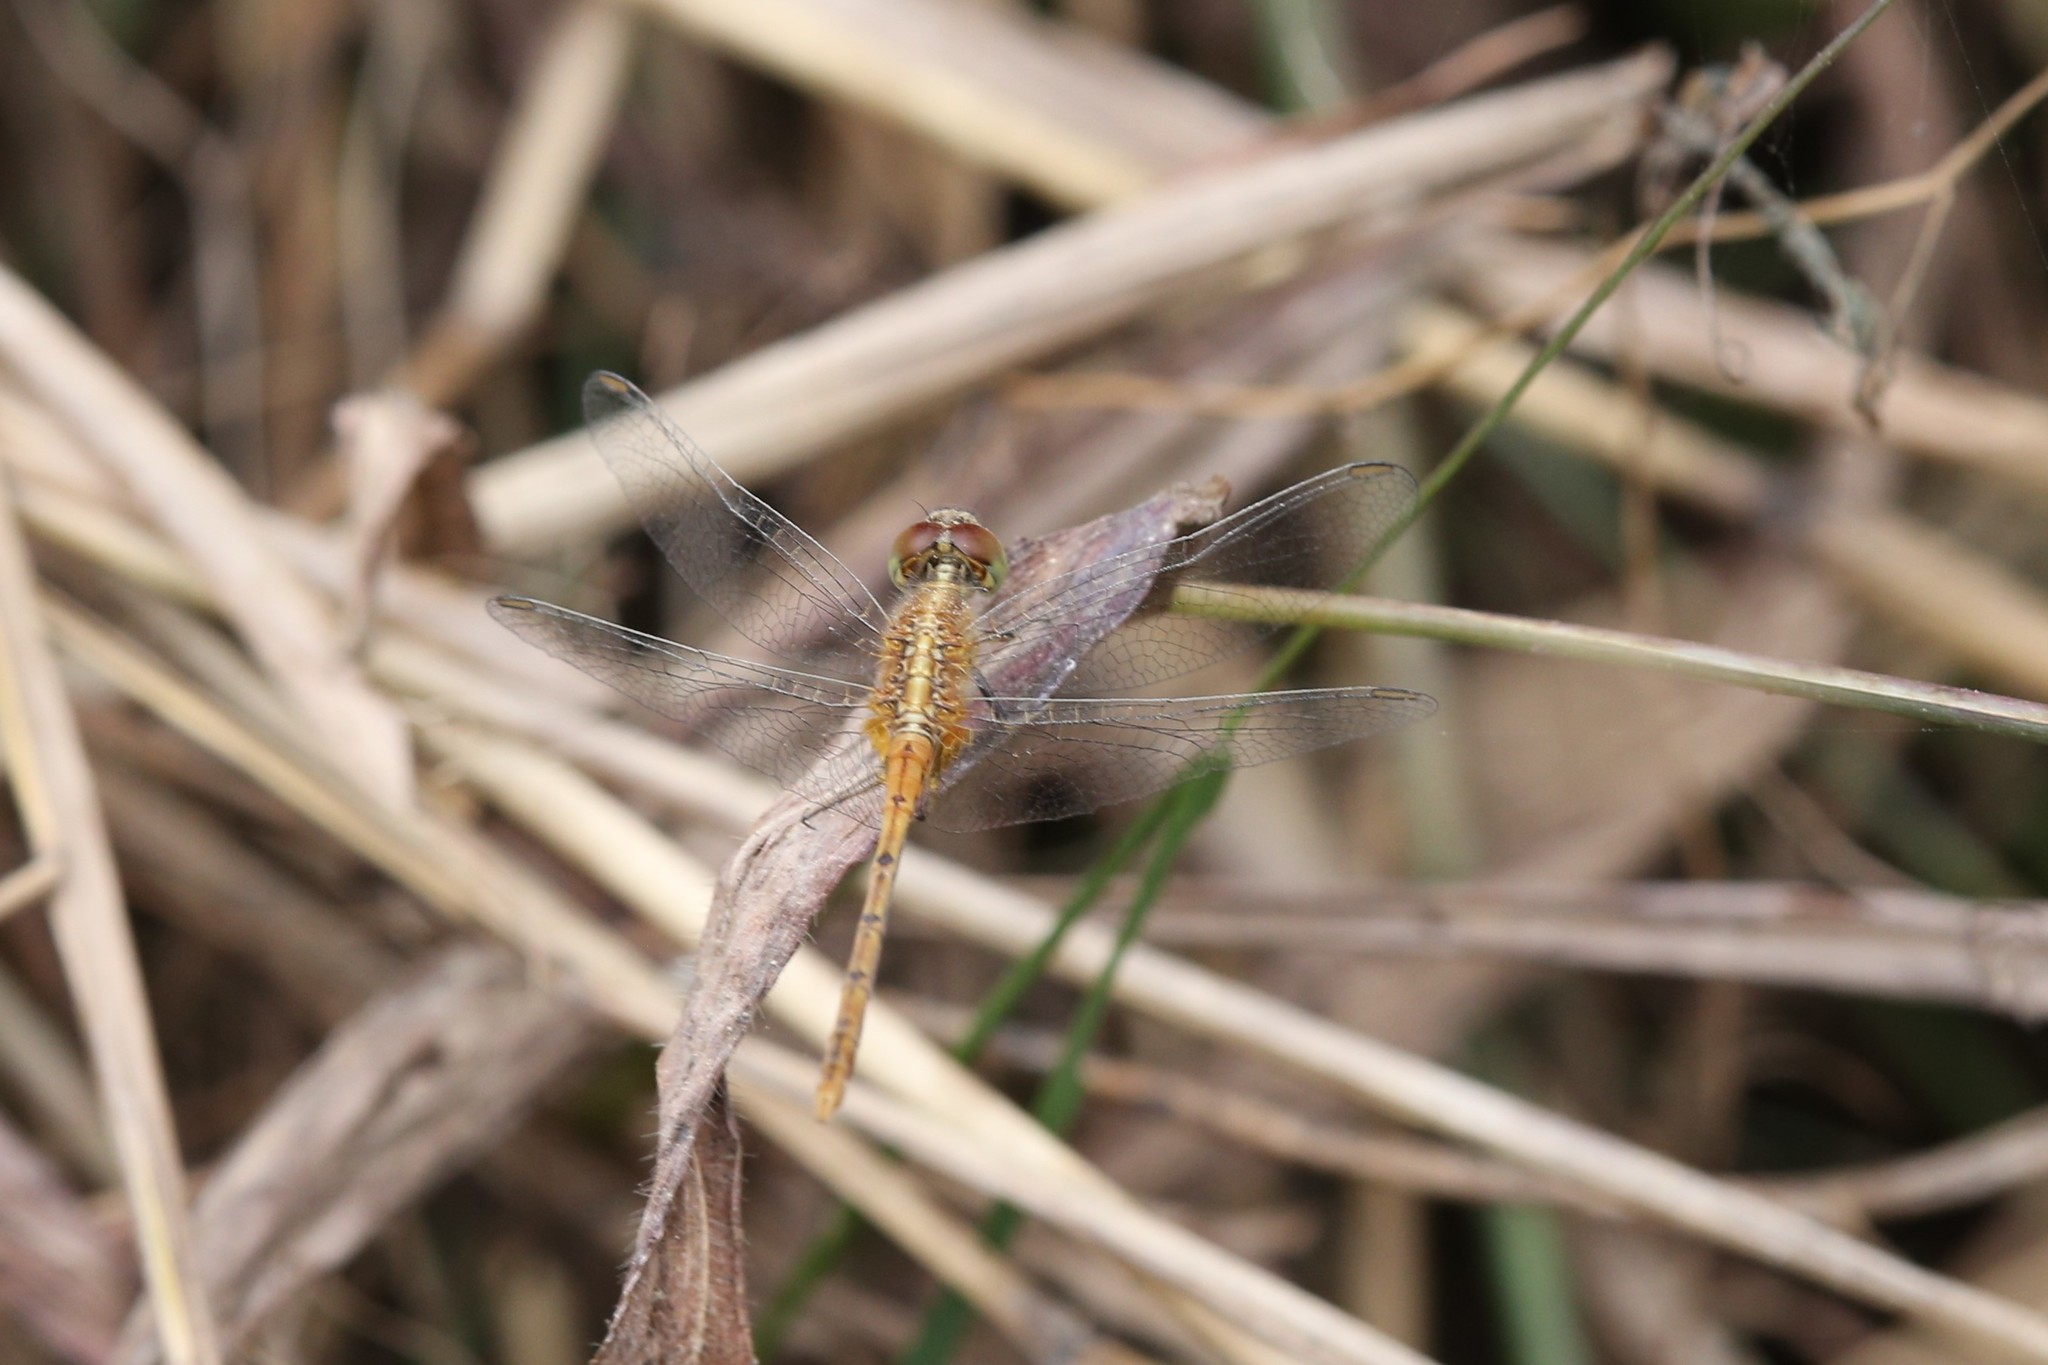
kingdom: Animalia
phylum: Arthropoda
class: Insecta
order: Odonata
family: Libellulidae
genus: Diplacodes
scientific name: Diplacodes bipunctata
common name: Red percher dragonfly
